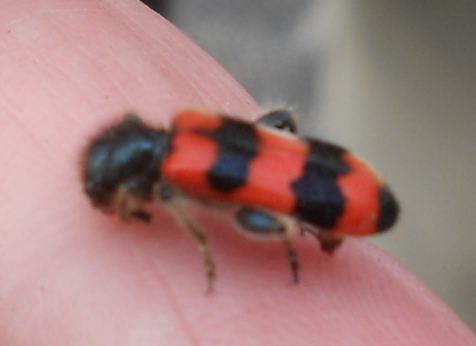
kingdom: Animalia
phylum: Arthropoda
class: Insecta
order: Coleoptera
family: Cleridae
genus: Trichodes
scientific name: Trichodes apiarius
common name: Bee-eating beetle
